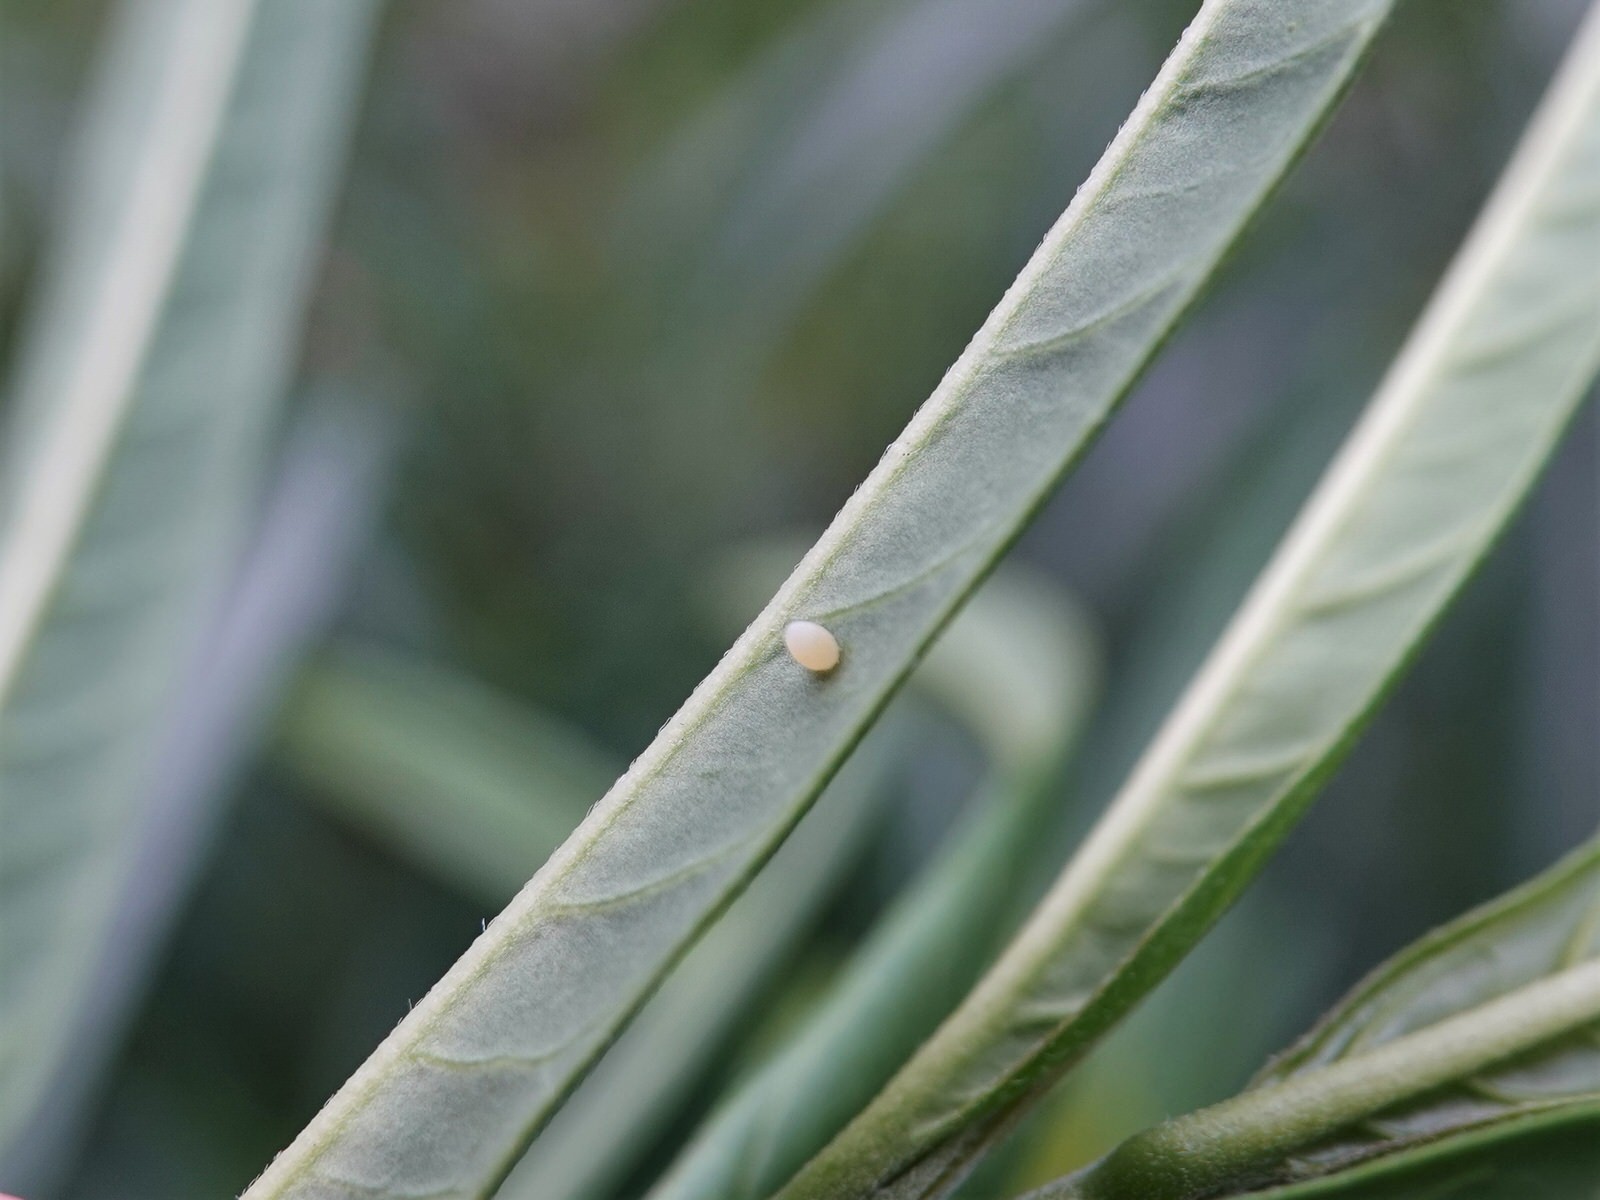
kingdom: Animalia
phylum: Arthropoda
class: Insecta
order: Lepidoptera
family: Nymphalidae
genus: Danaus
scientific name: Danaus plexippus
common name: Monarch
